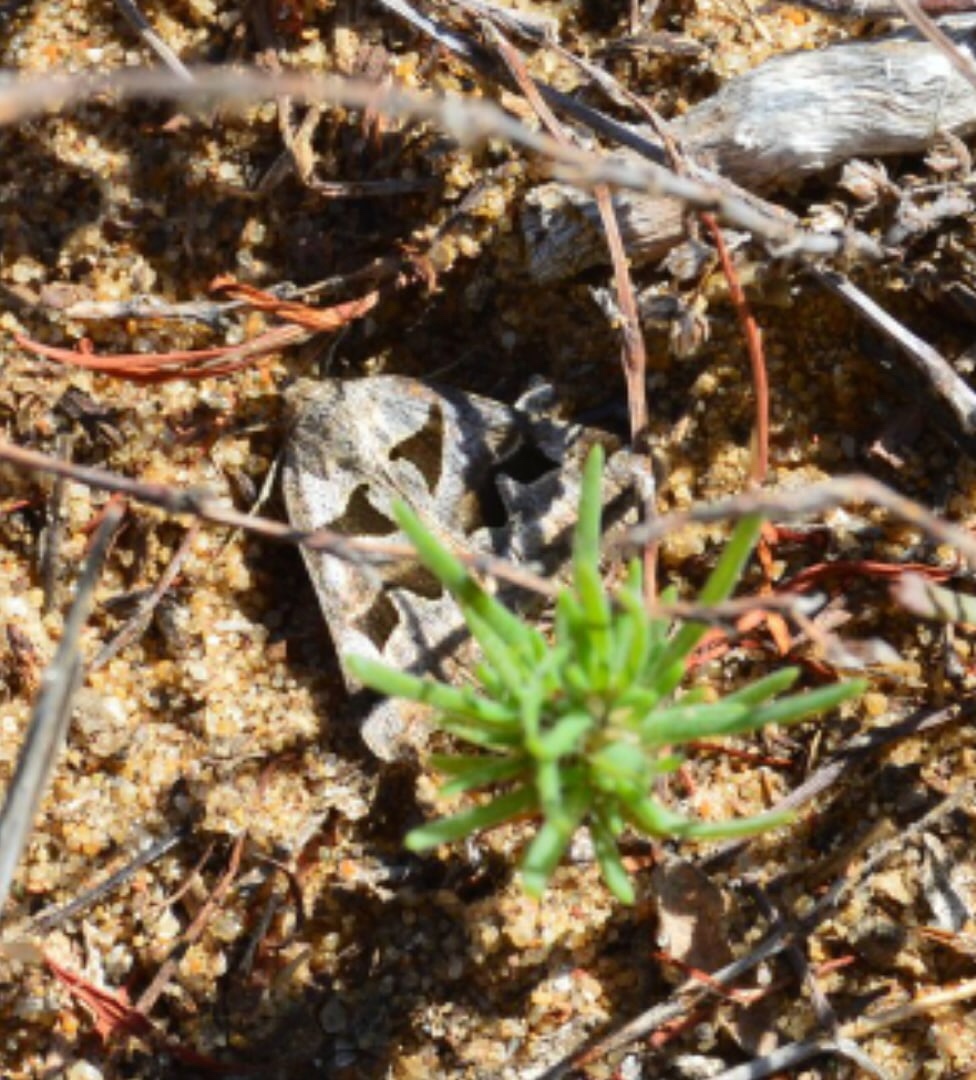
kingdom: Animalia
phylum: Arthropoda
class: Insecta
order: Lepidoptera
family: Erebidae
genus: Euclidia
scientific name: Euclidia triquetra
